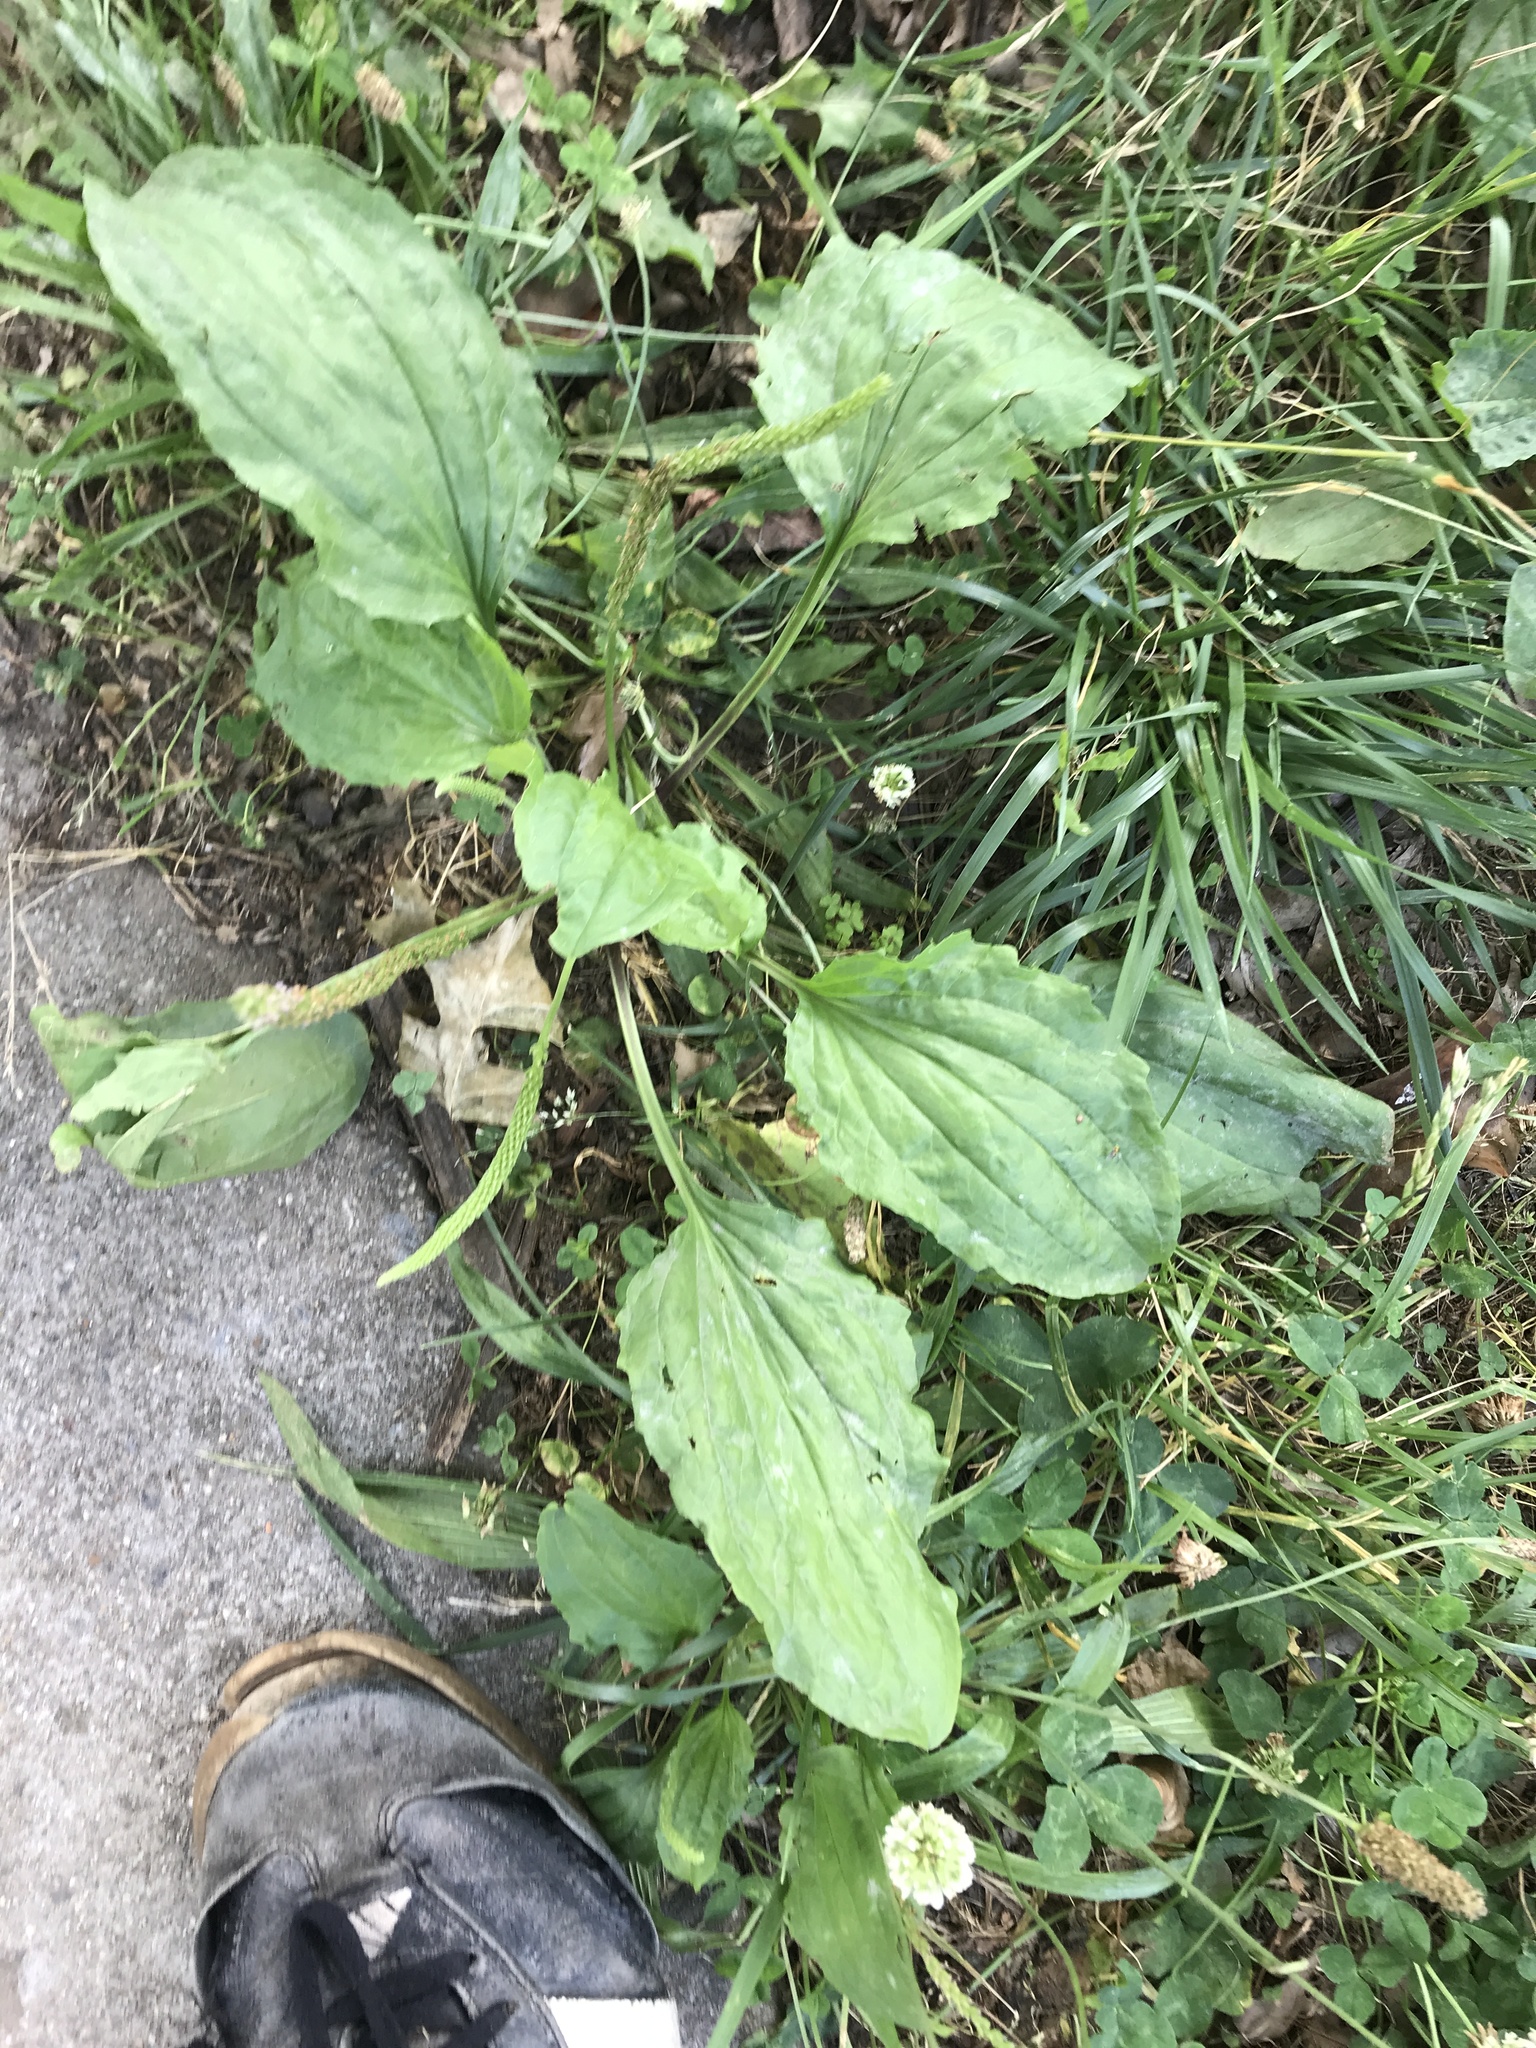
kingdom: Plantae
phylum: Tracheophyta
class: Magnoliopsida
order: Lamiales
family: Plantaginaceae
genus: Plantago
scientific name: Plantago major
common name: Common plantain
